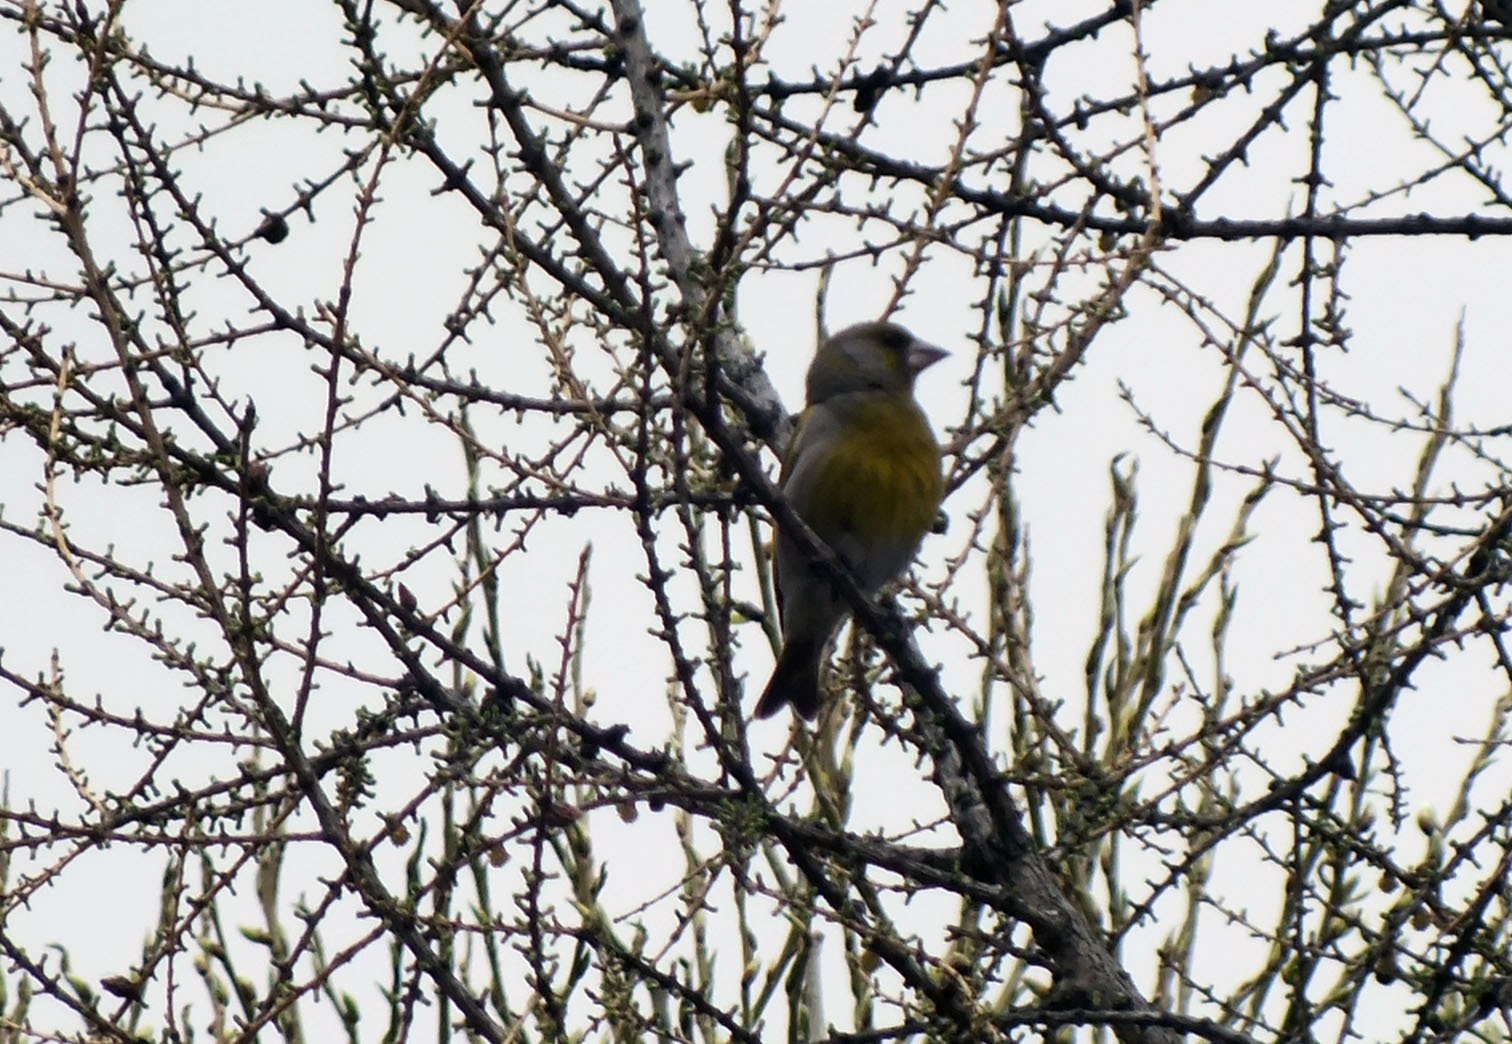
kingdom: Plantae
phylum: Tracheophyta
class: Liliopsida
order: Poales
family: Poaceae
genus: Chloris
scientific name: Chloris chloris
